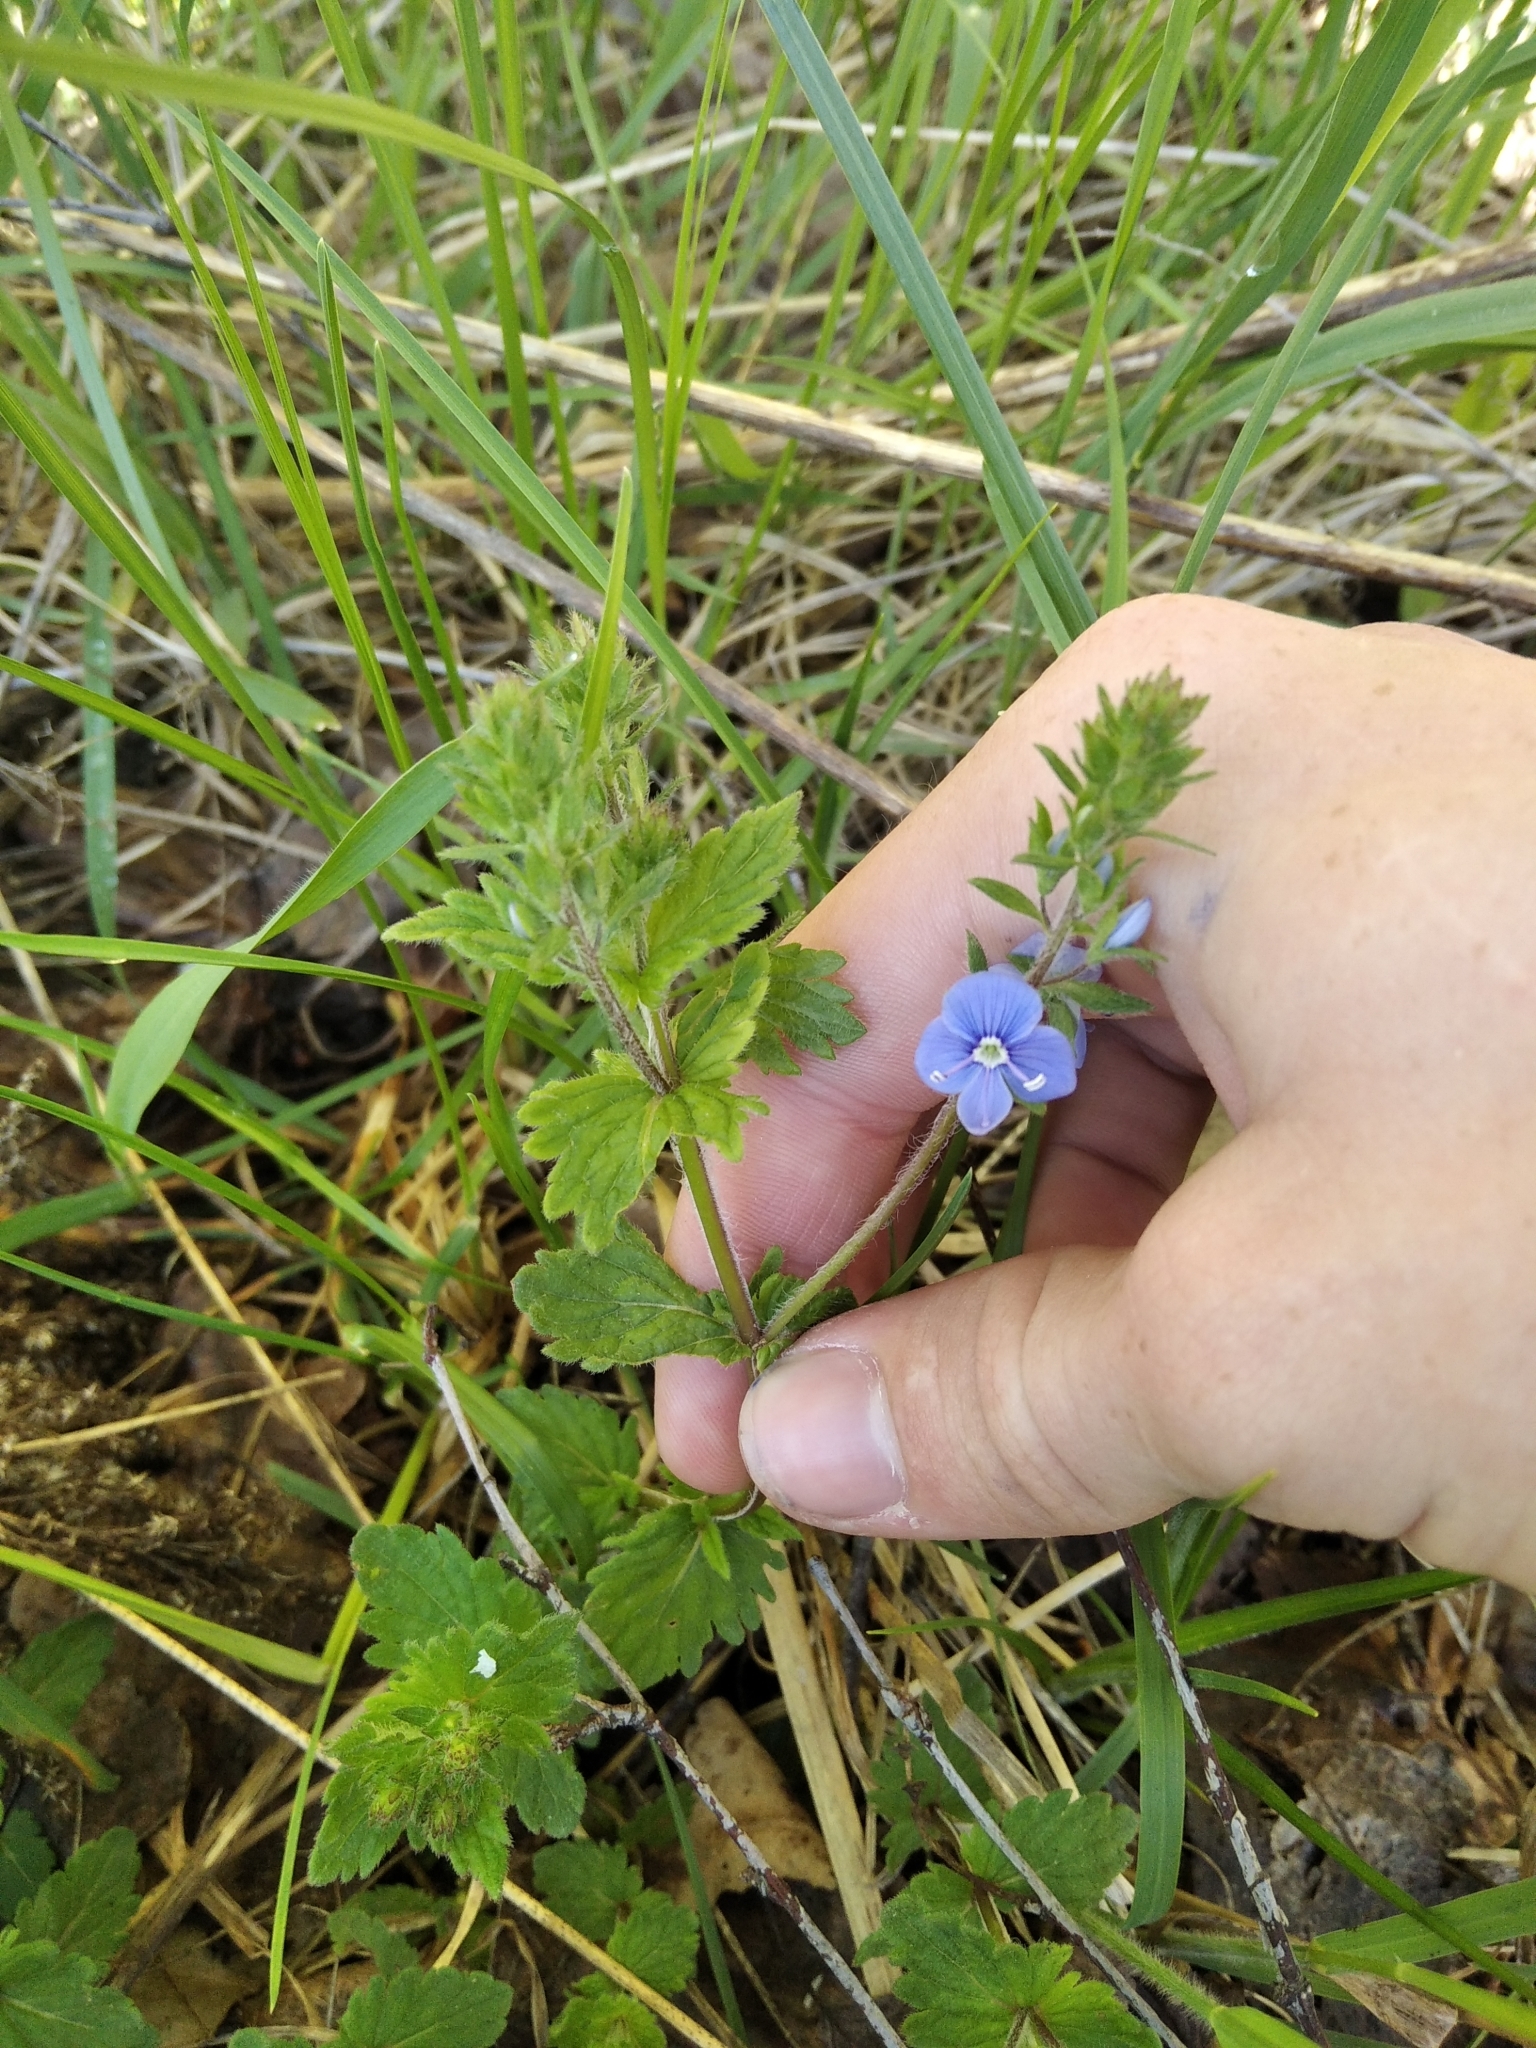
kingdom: Plantae
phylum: Tracheophyta
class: Magnoliopsida
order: Lamiales
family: Plantaginaceae
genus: Veronica
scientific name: Veronica chamaedrys
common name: Germander speedwell
